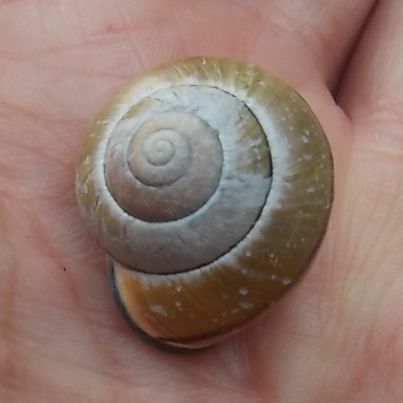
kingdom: Animalia
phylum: Mollusca
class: Gastropoda
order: Stylommatophora
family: Helicidae
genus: Cepaea
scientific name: Cepaea nemoralis
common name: Grovesnail
